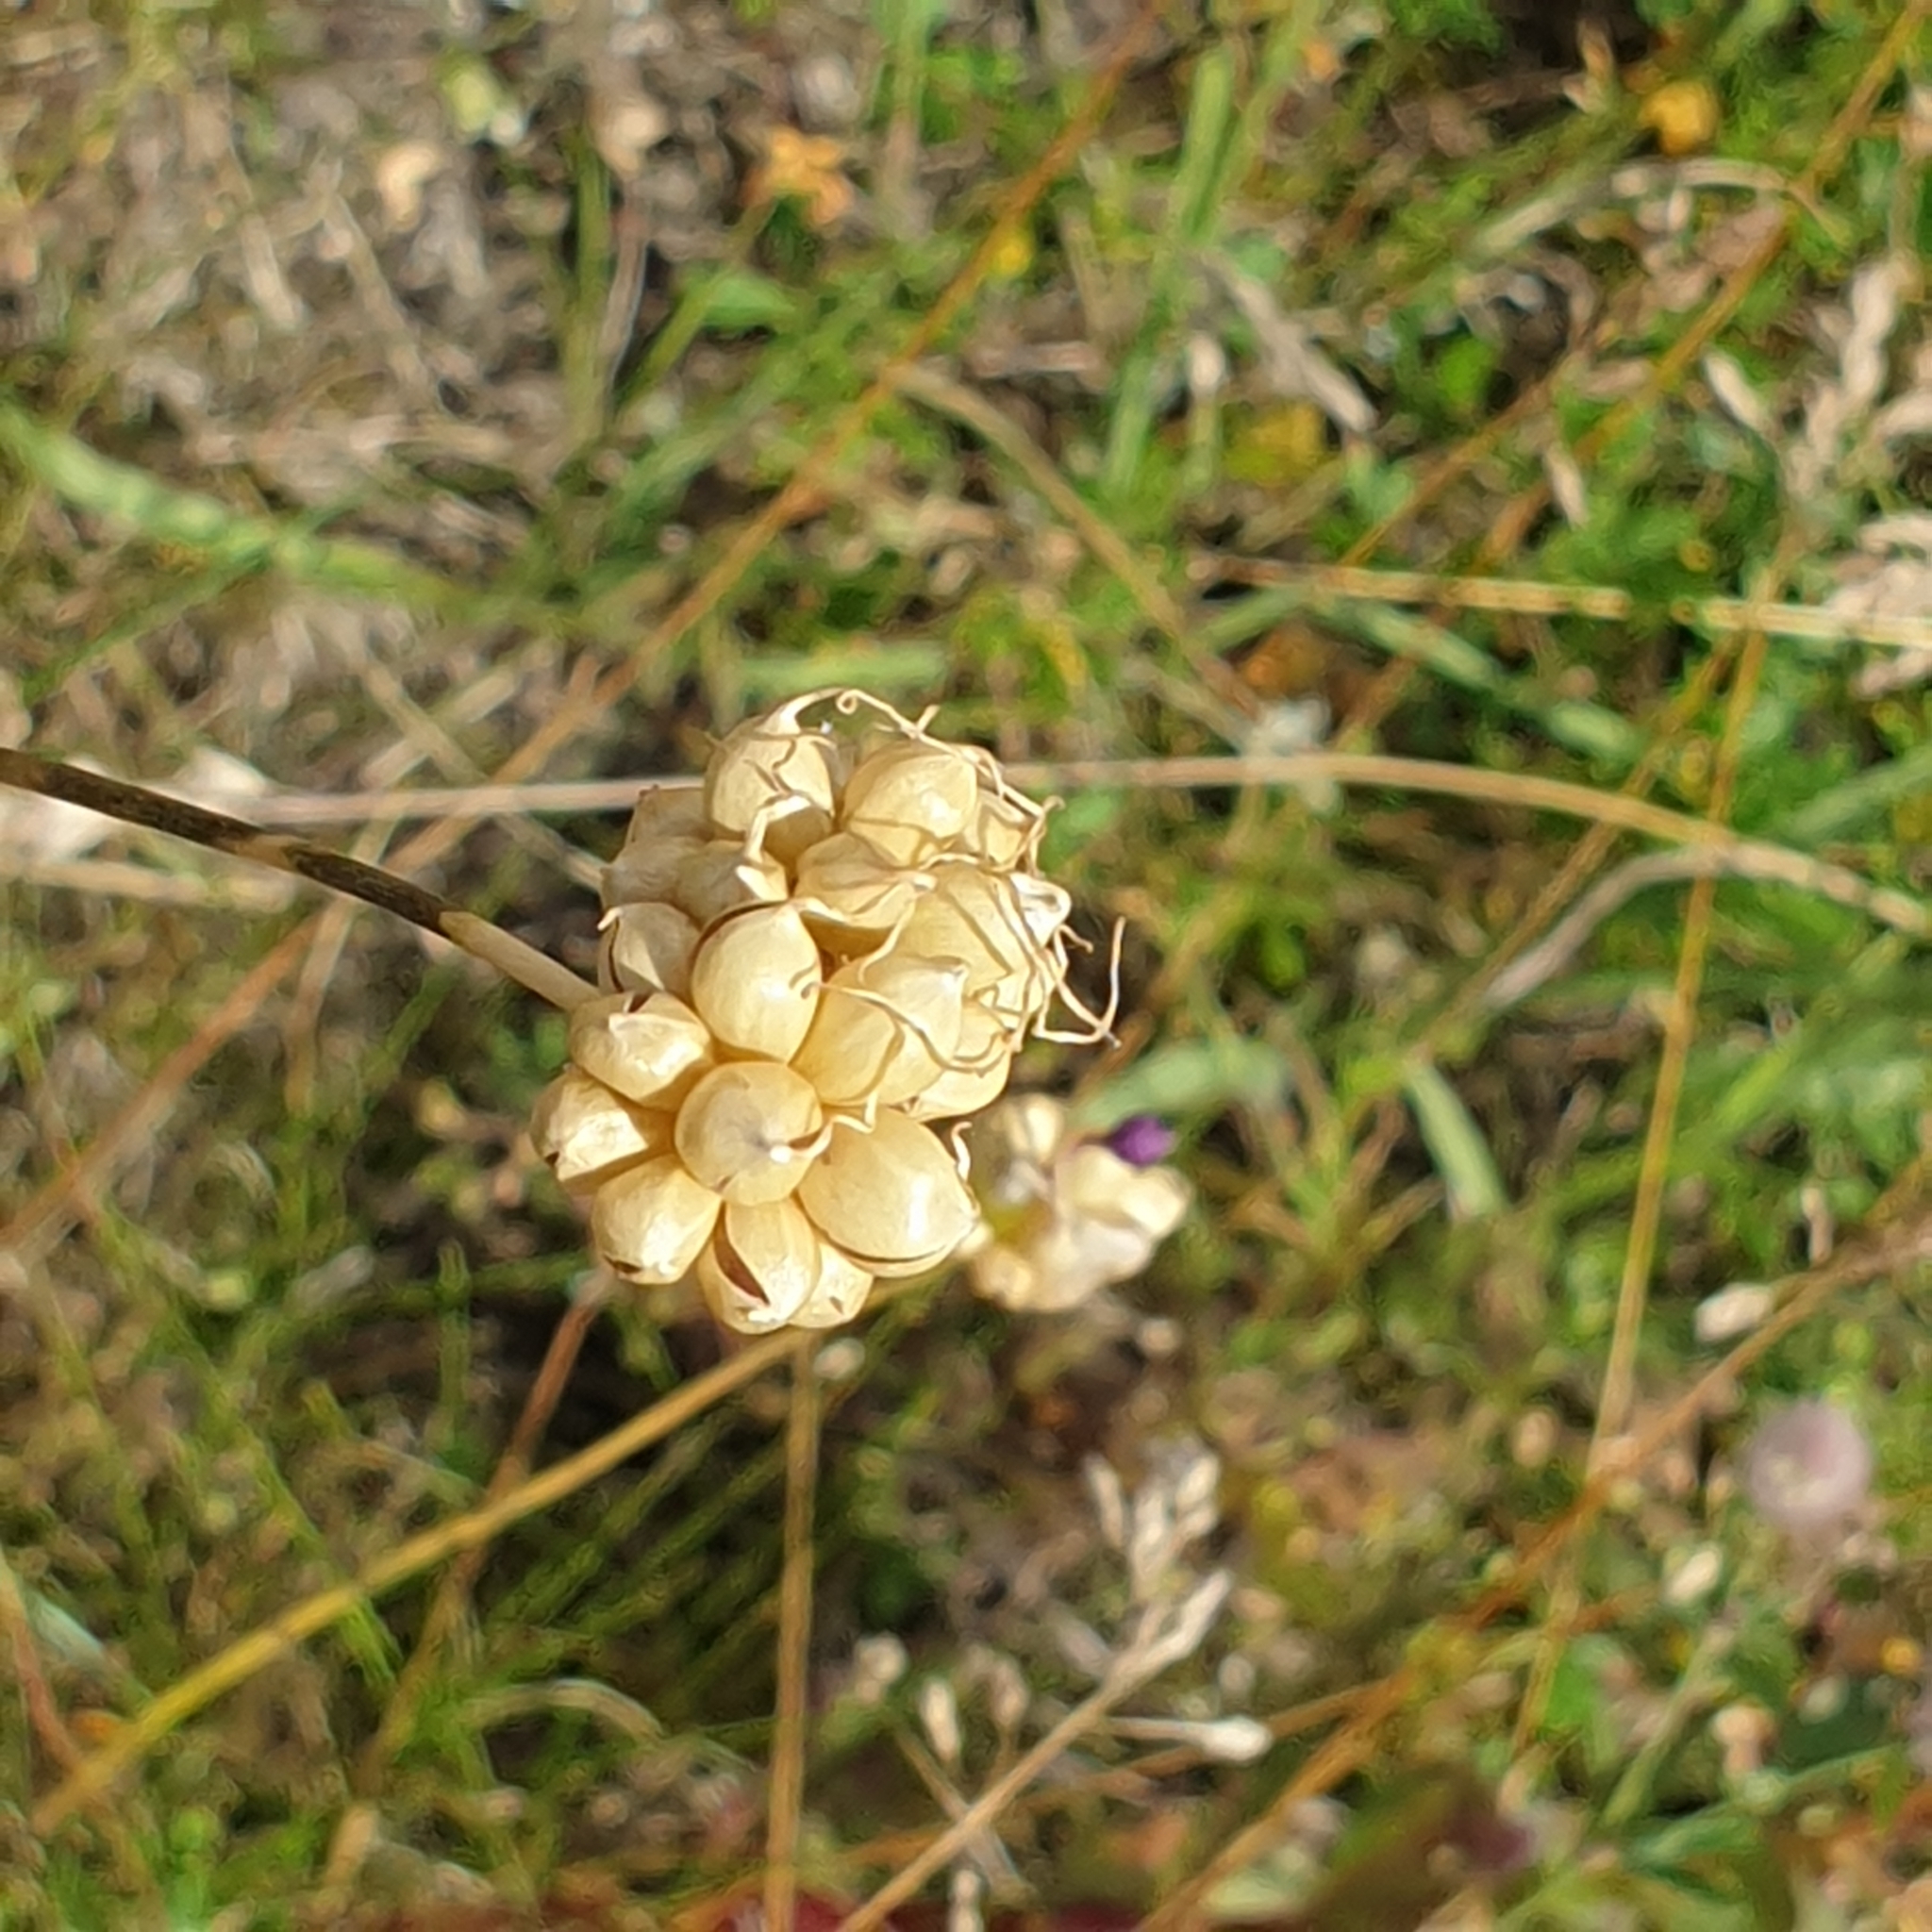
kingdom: Plantae
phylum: Tracheophyta
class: Liliopsida
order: Asparagales
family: Amaryllidaceae
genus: Allium
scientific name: Allium vineale
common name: Crow garlic
